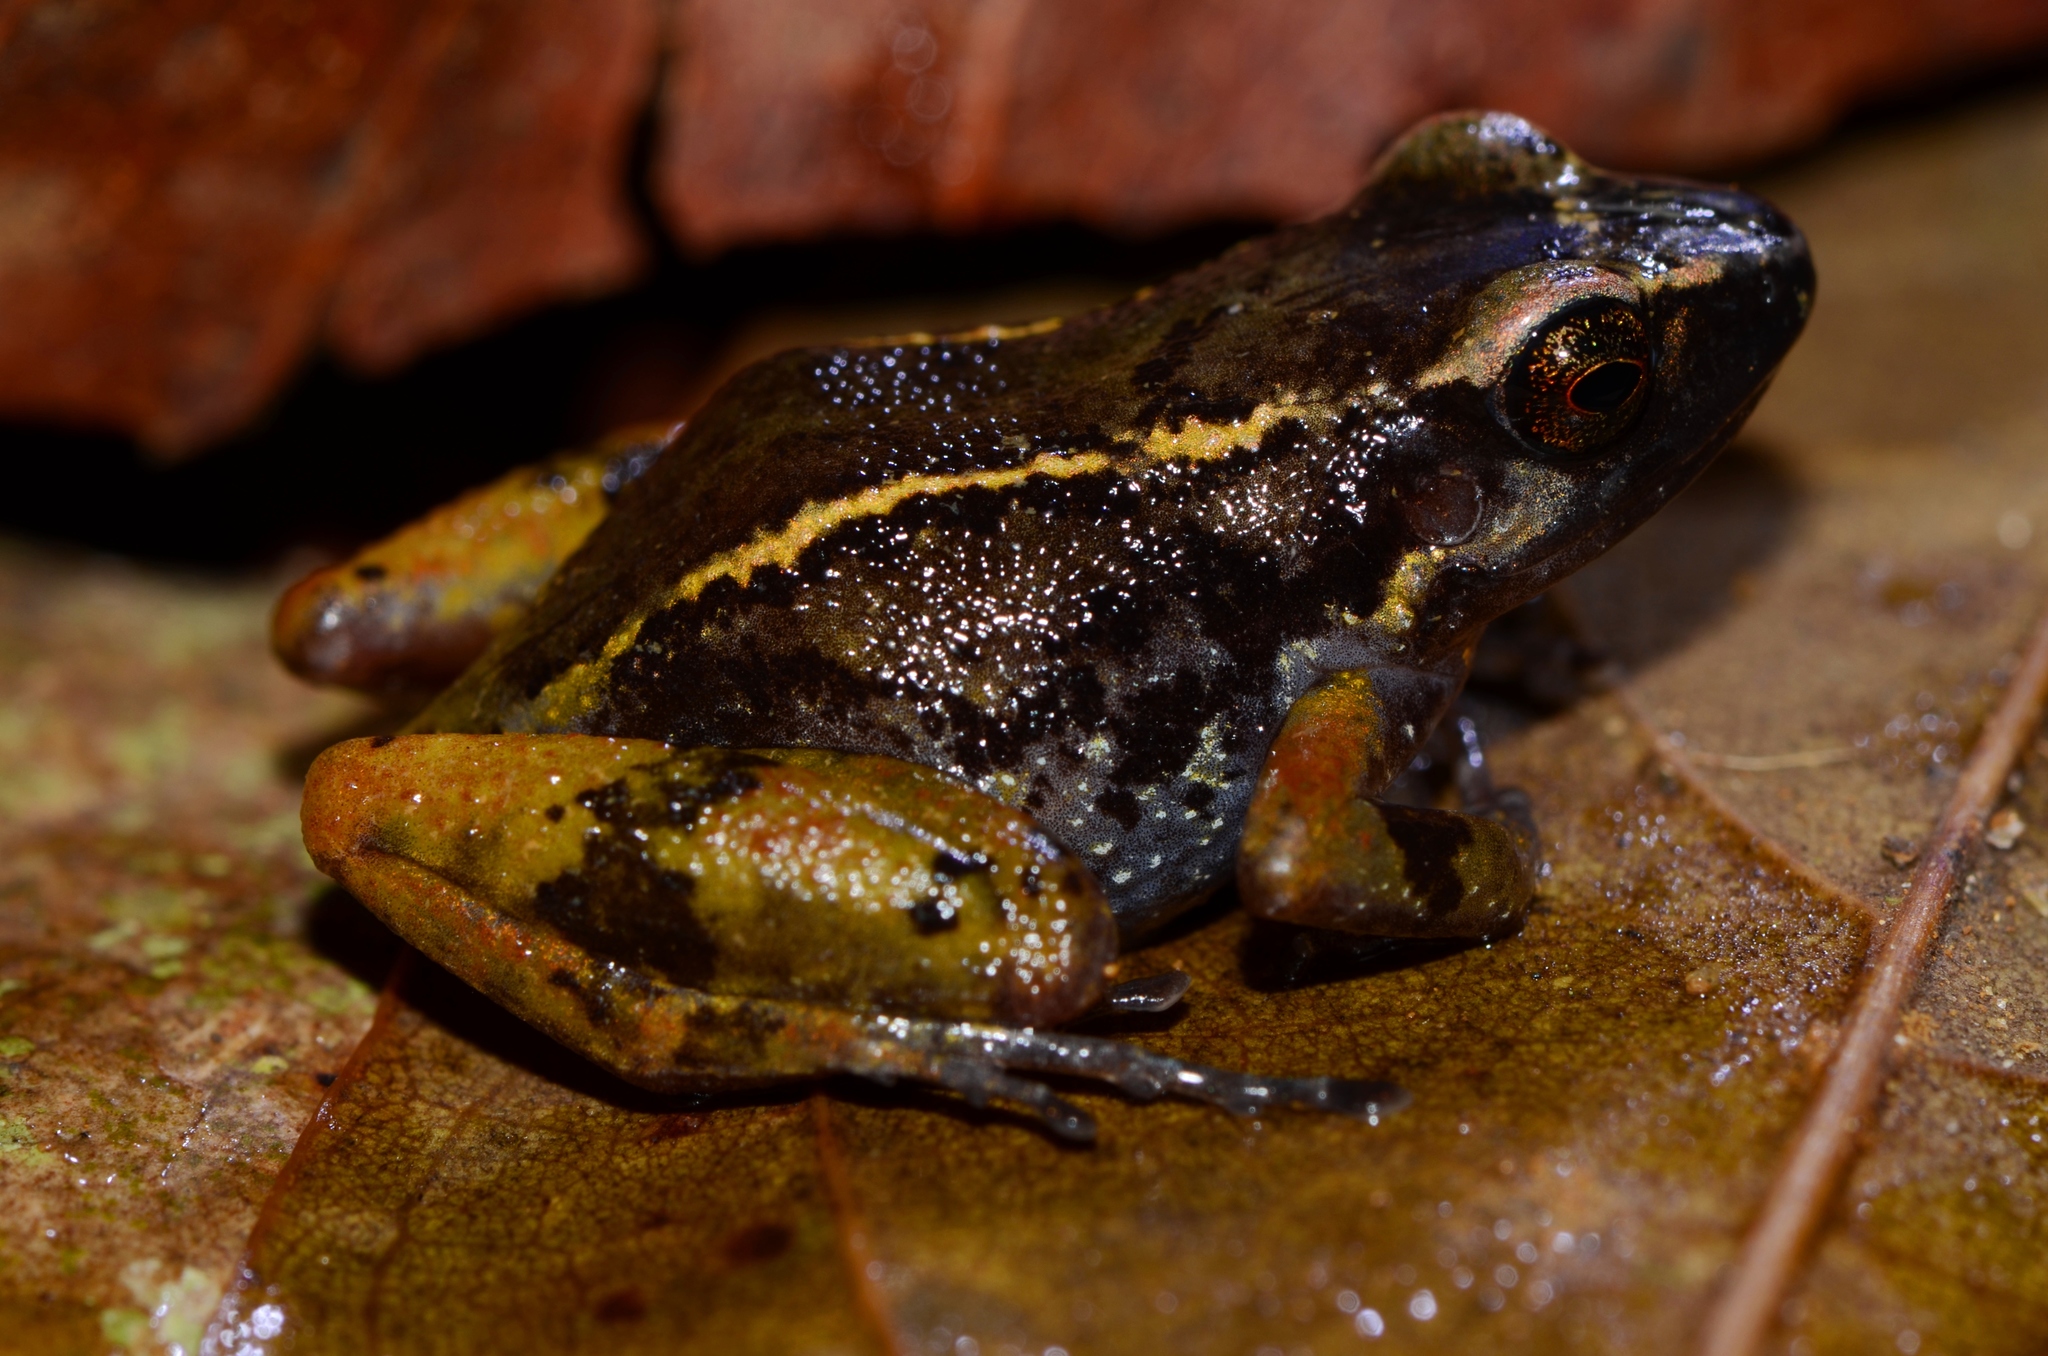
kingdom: Animalia
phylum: Chordata
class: Amphibia
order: Anura
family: Arthroleptidae
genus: Arthroleptis
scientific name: Arthroleptis taeniatus
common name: Striped screeching frog
